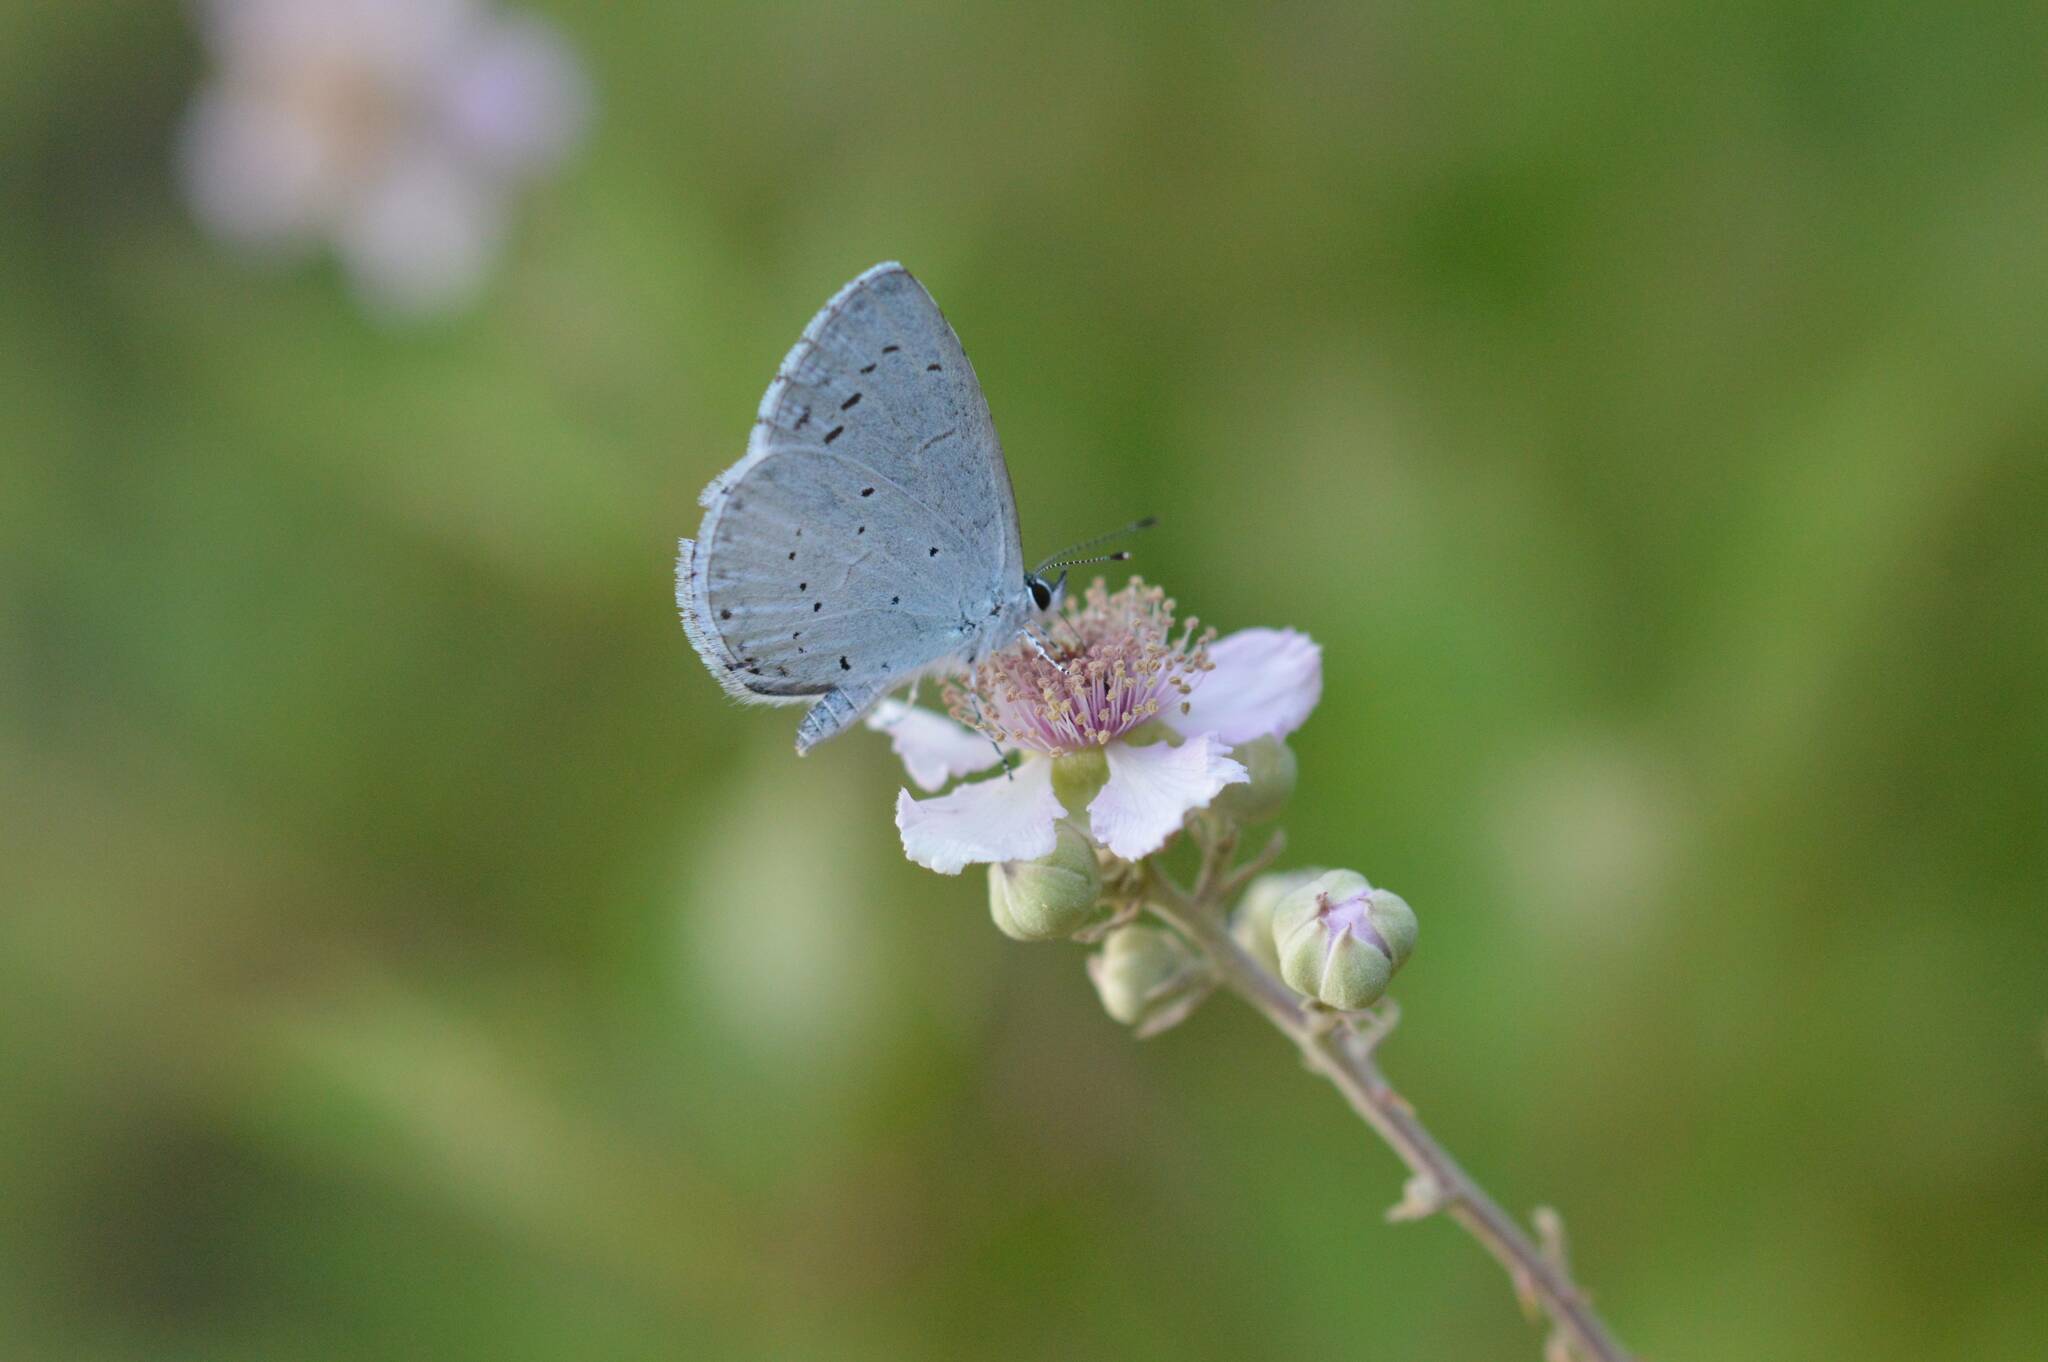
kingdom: Animalia
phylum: Arthropoda
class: Insecta
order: Lepidoptera
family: Lycaenidae
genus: Celastrina
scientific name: Celastrina argiolus
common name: Holly blue
